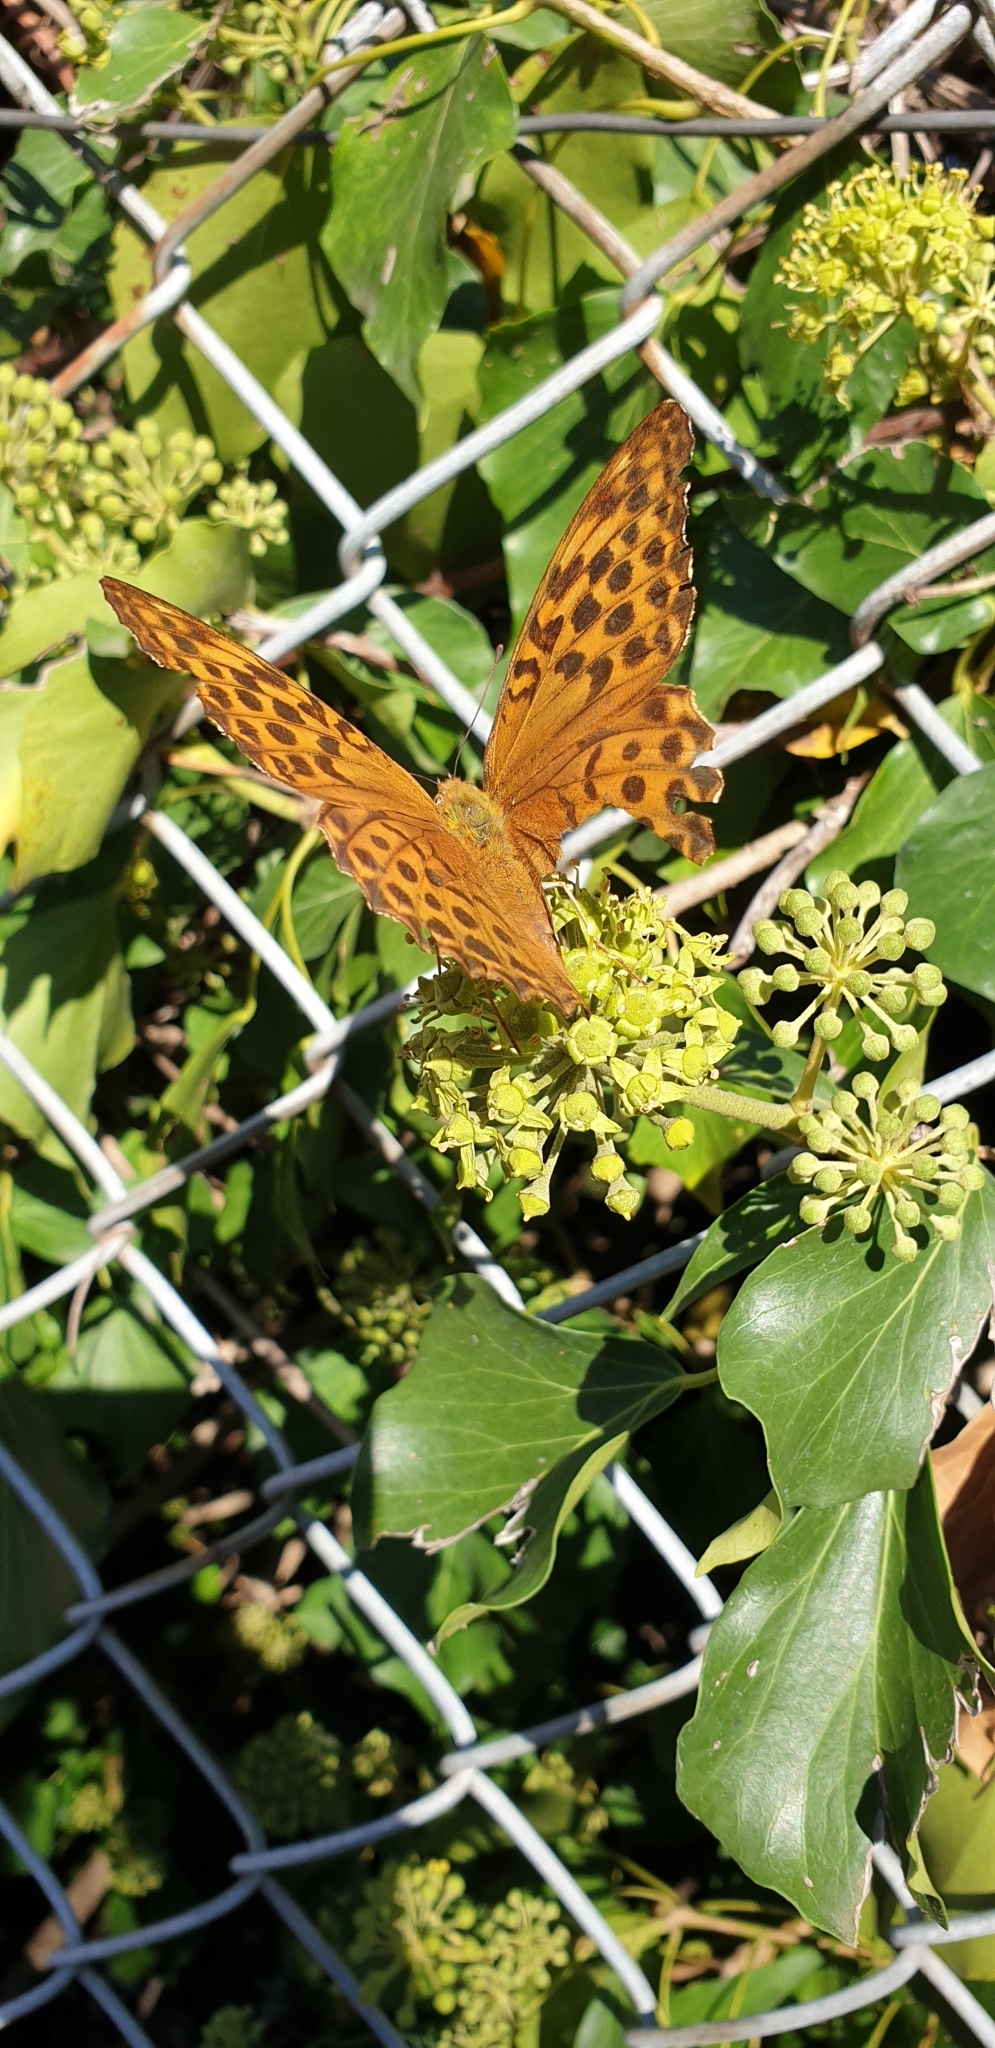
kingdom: Animalia
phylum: Arthropoda
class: Insecta
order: Lepidoptera
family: Nymphalidae
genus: Argynnis
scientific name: Argynnis paphia
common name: Silver-washed fritillary
